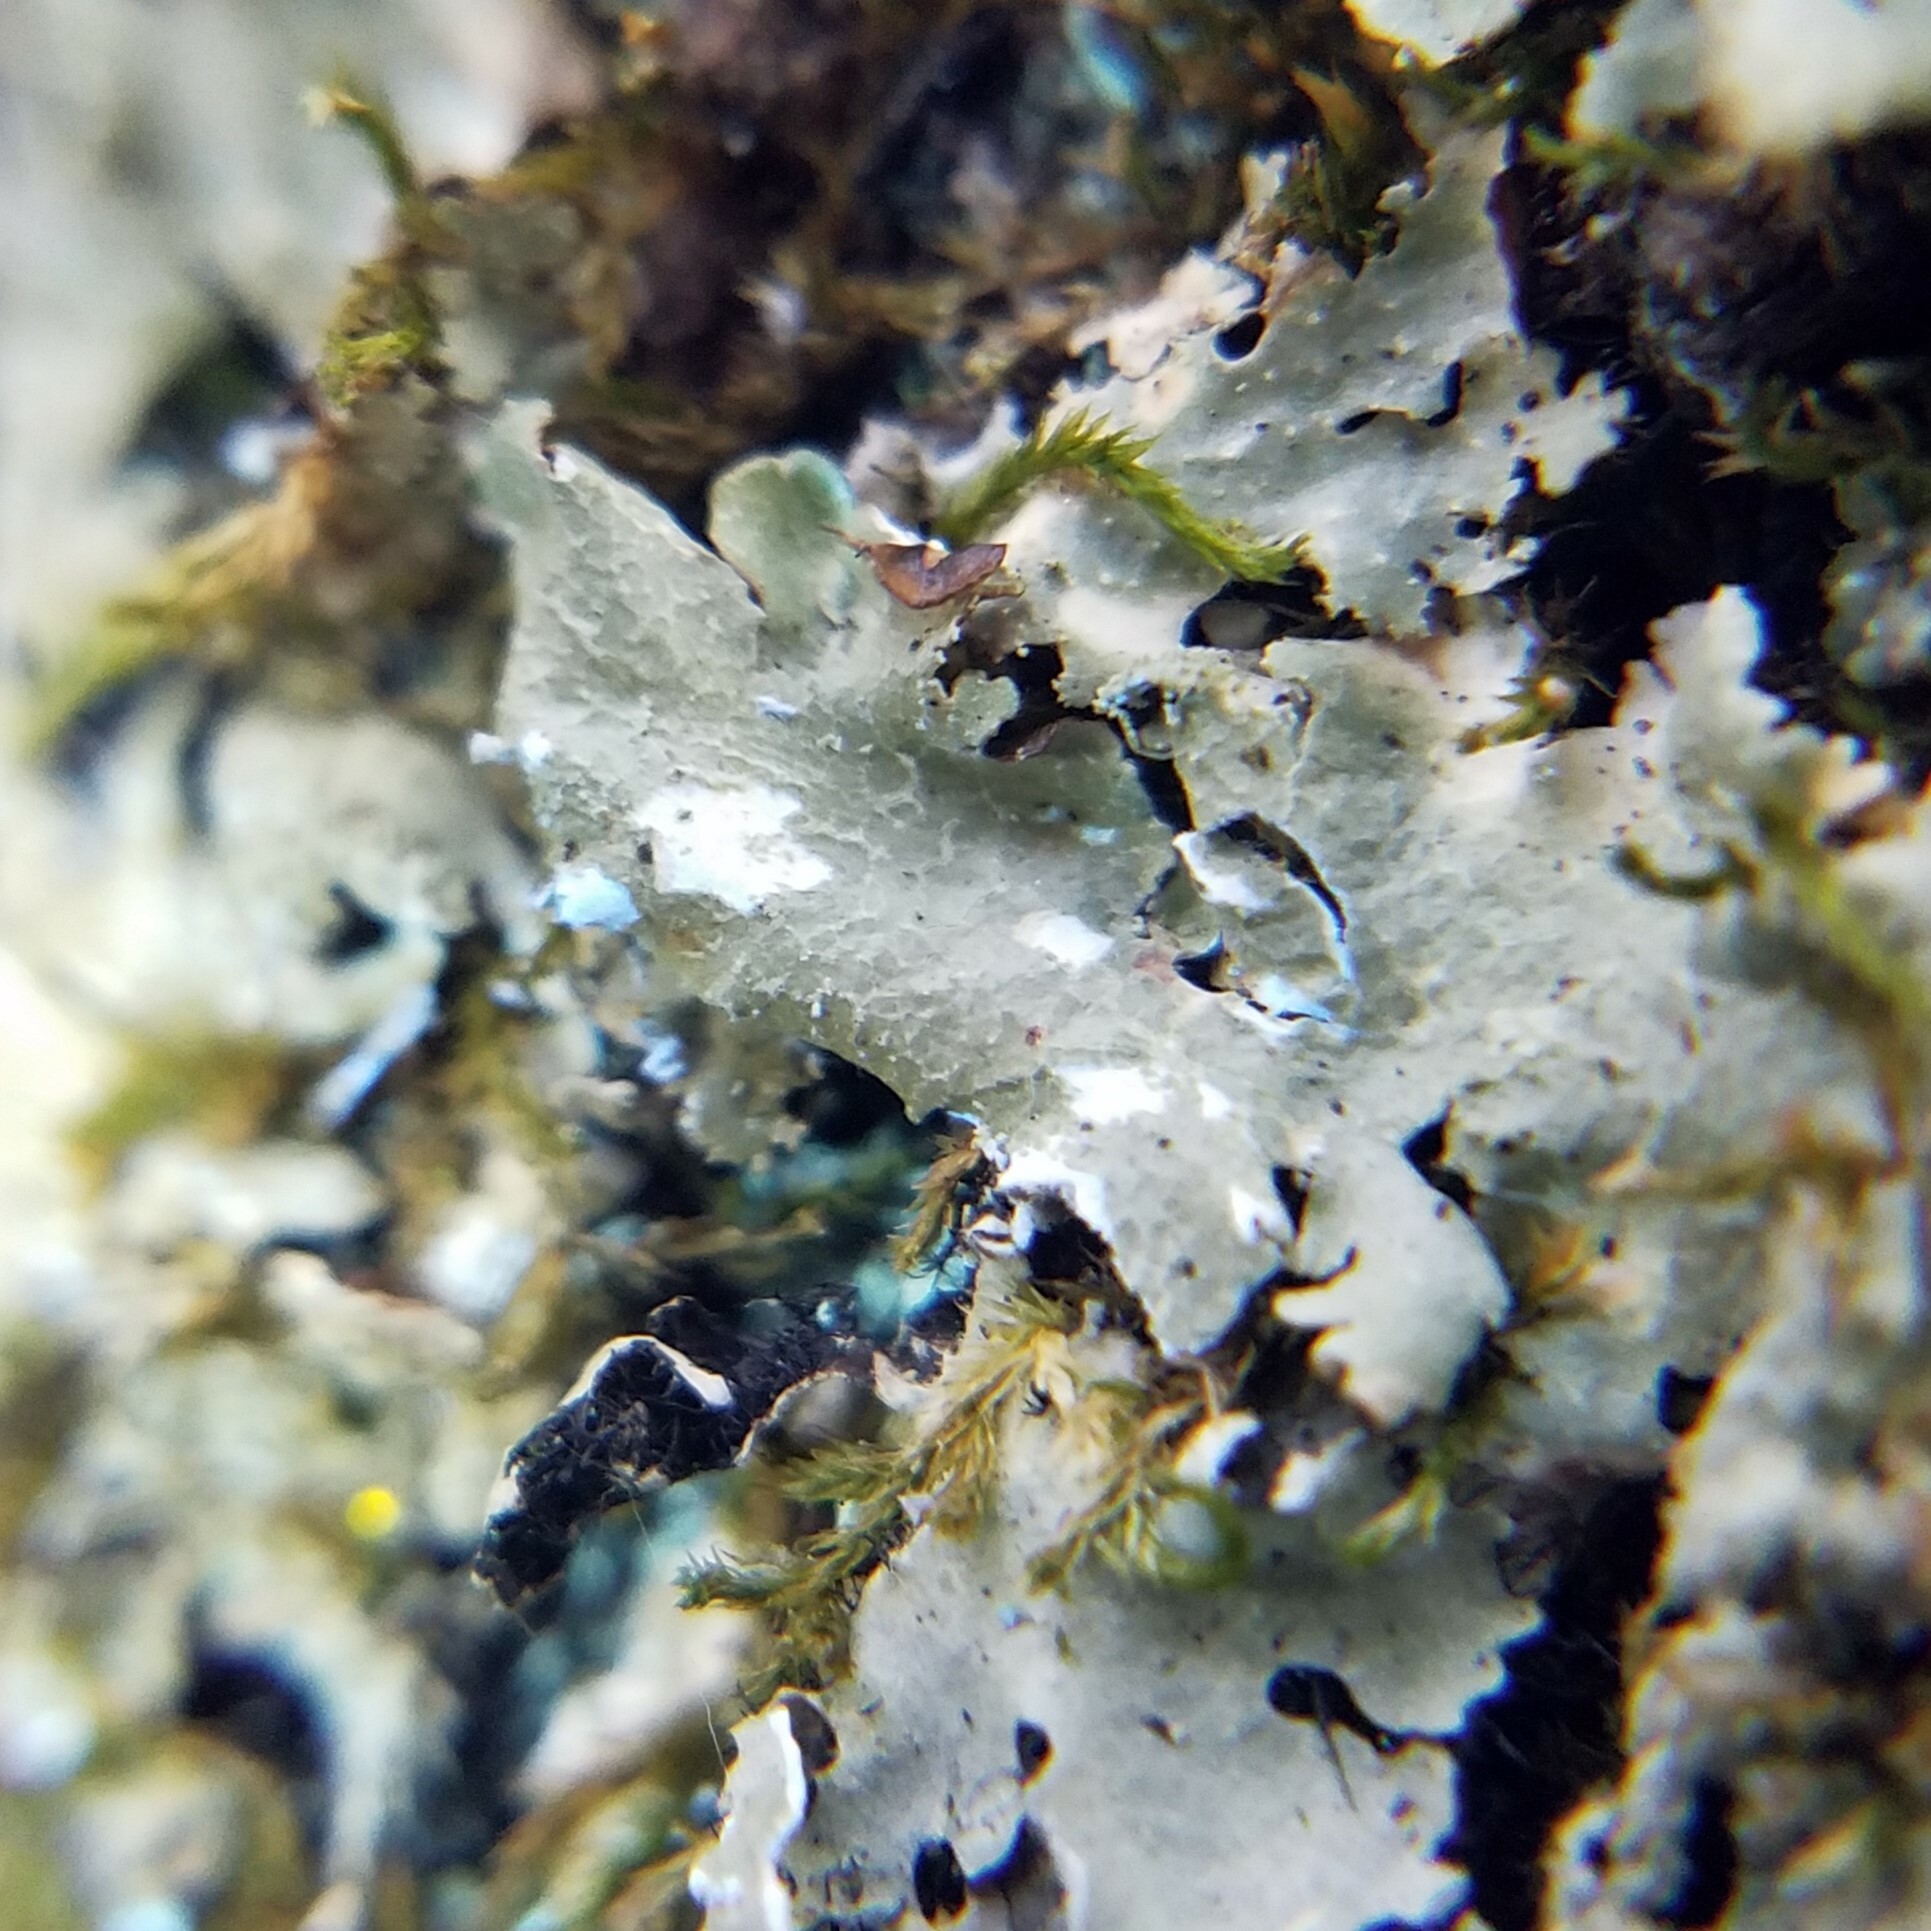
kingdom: Fungi
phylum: Ascomycota
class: Lecanoromycetes
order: Lecanorales
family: Parmeliaceae
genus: Canoparmelia
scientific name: Canoparmelia caroliniana
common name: Carolina shield lichen
